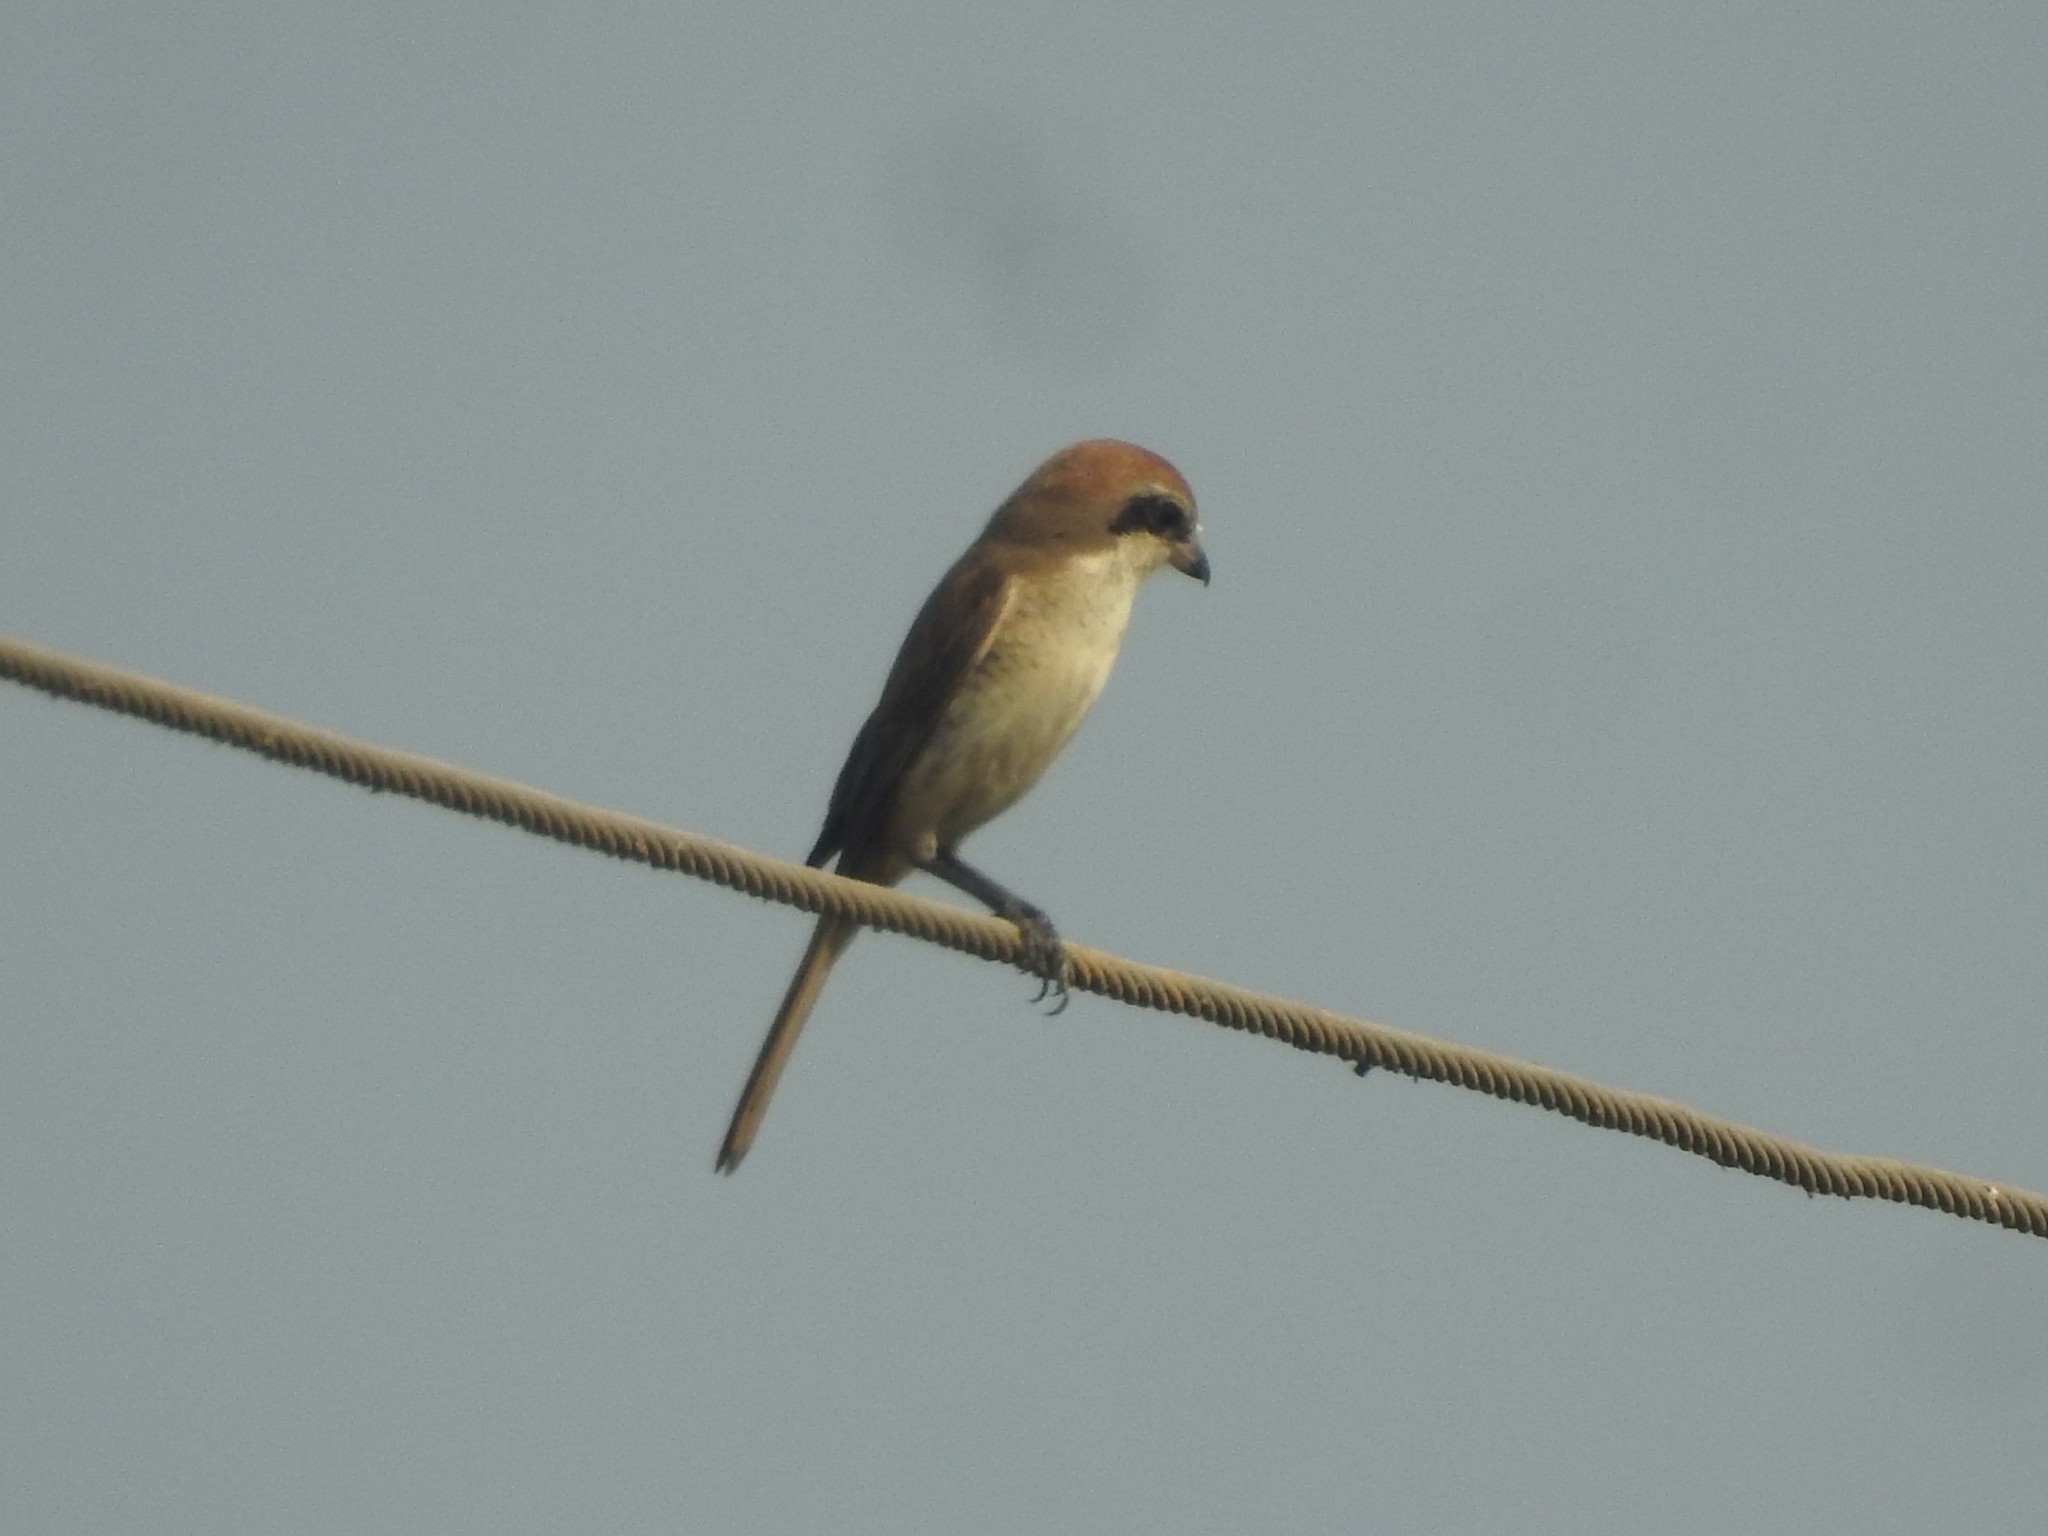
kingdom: Animalia
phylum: Chordata
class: Aves
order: Passeriformes
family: Laniidae
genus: Lanius
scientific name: Lanius cristatus
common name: Brown shrike
